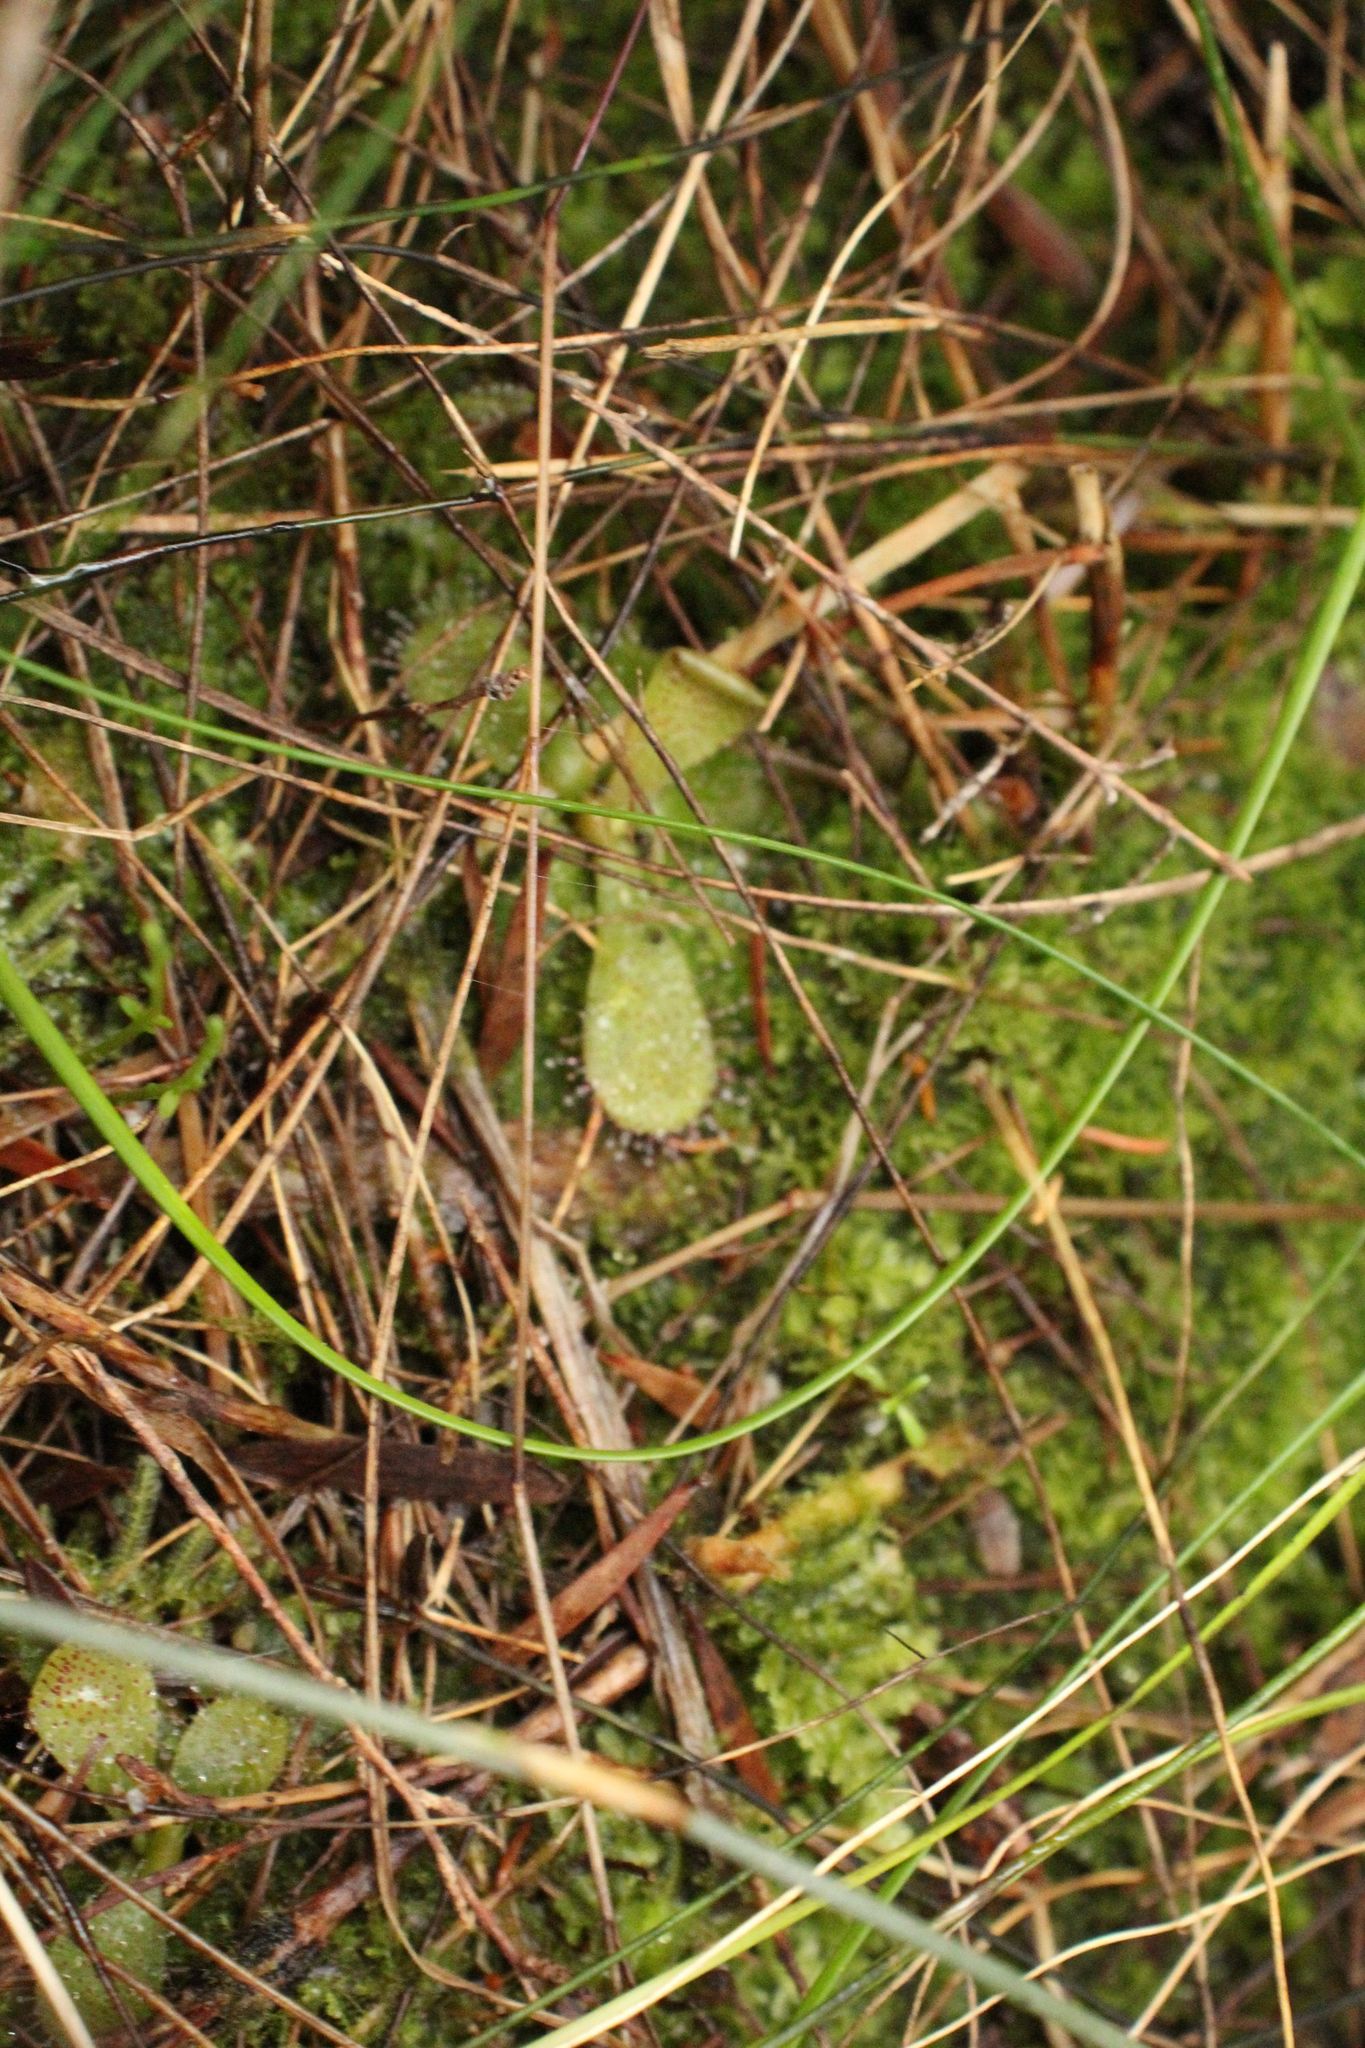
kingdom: Plantae
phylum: Tracheophyta
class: Magnoliopsida
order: Caryophyllales
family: Droseraceae
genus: Drosera
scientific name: Drosera hamiltonii
